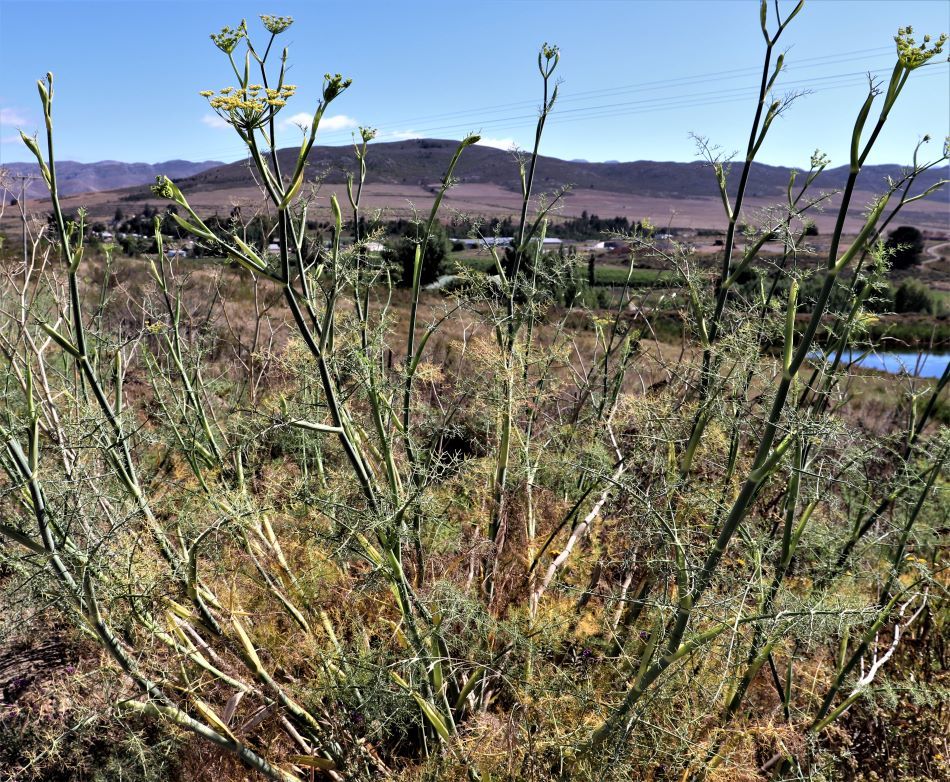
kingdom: Plantae
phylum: Tracheophyta
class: Magnoliopsida
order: Apiales
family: Apiaceae
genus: Foeniculum
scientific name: Foeniculum vulgare
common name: Fennel
